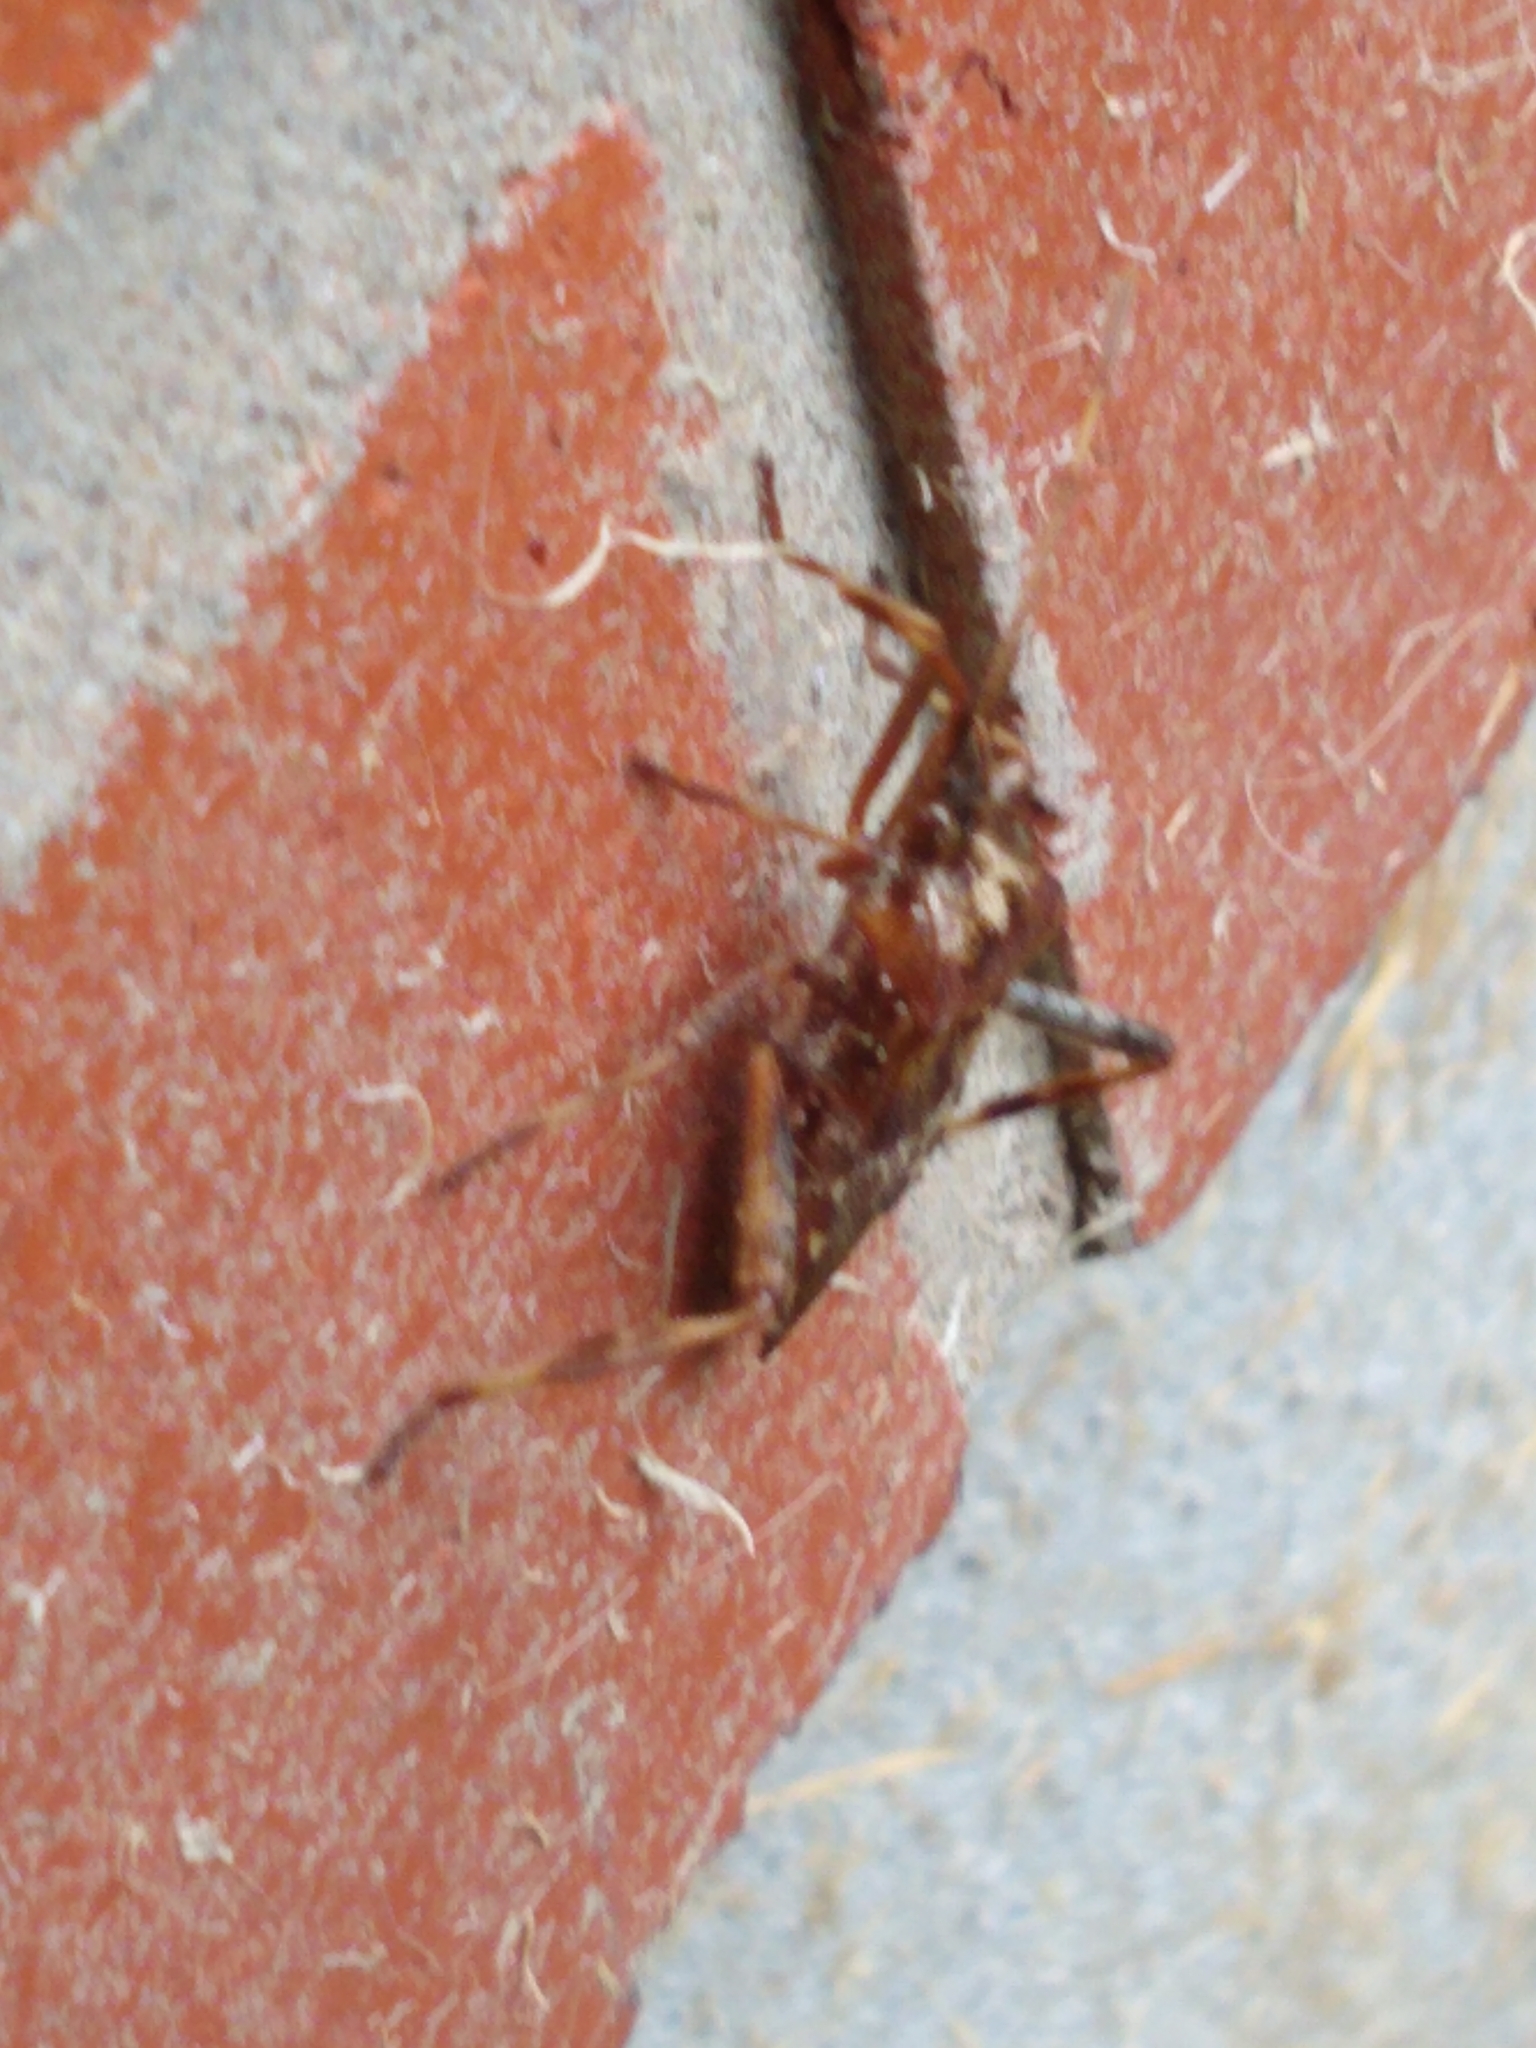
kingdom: Animalia
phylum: Arthropoda
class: Insecta
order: Hemiptera
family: Coreidae
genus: Leptoglossus
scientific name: Leptoglossus occidentalis
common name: Western conifer-seed bug
